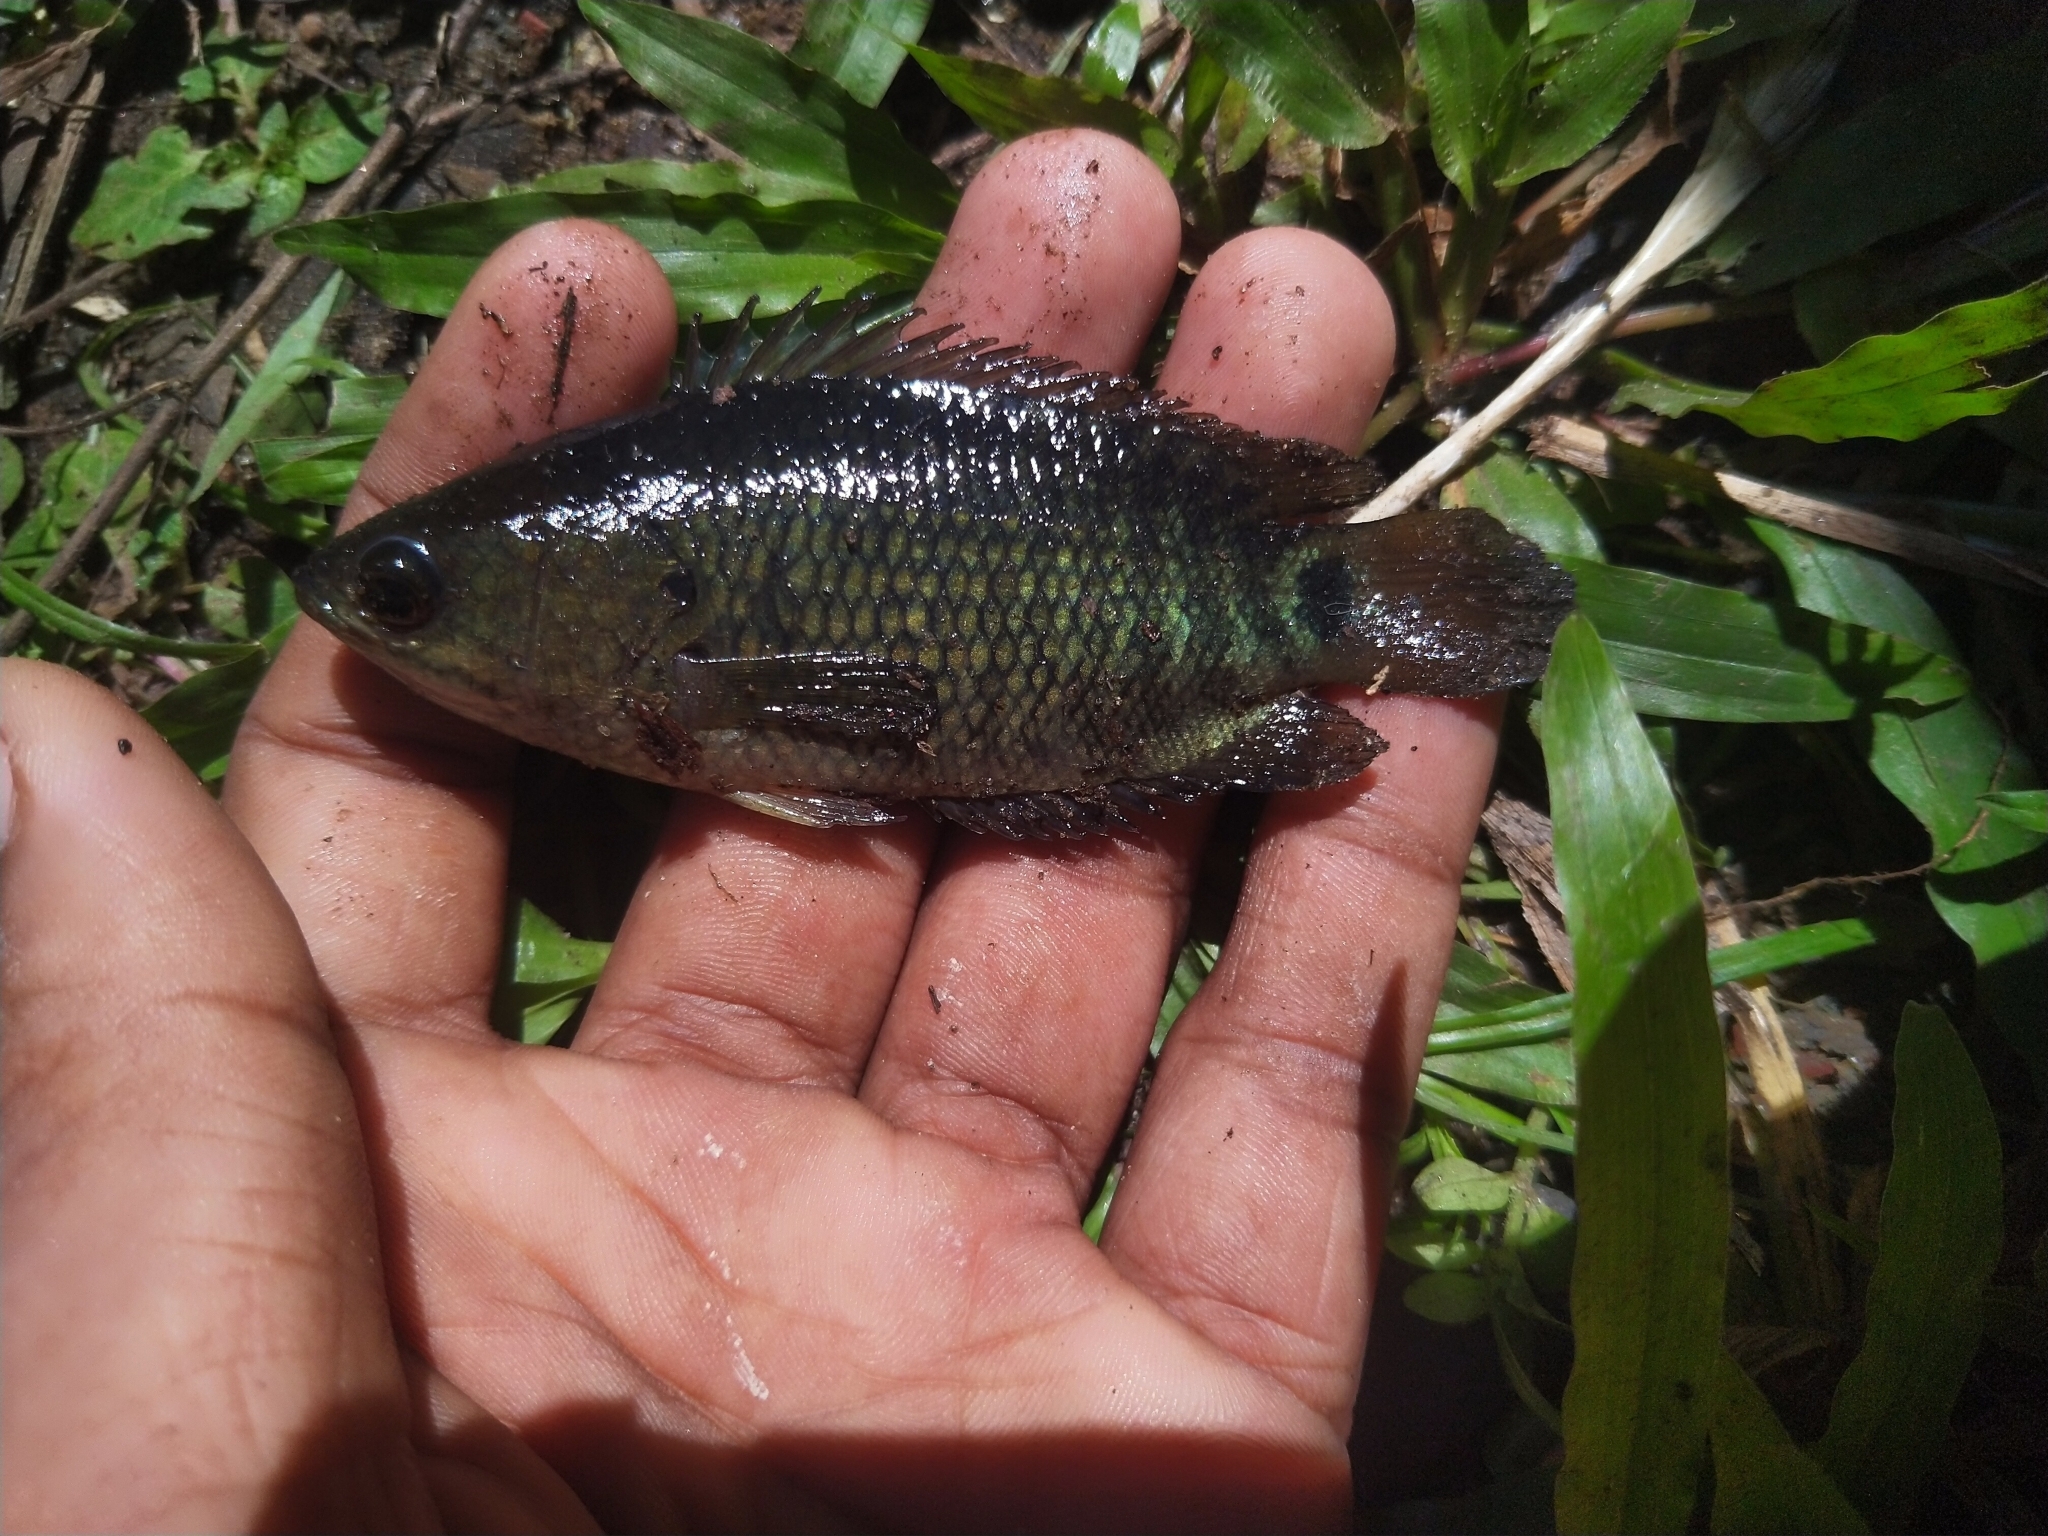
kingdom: Animalia
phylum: Chordata
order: Perciformes
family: Anabantidae
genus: Anabas
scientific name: Anabas testudineus
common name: Climbing perch
